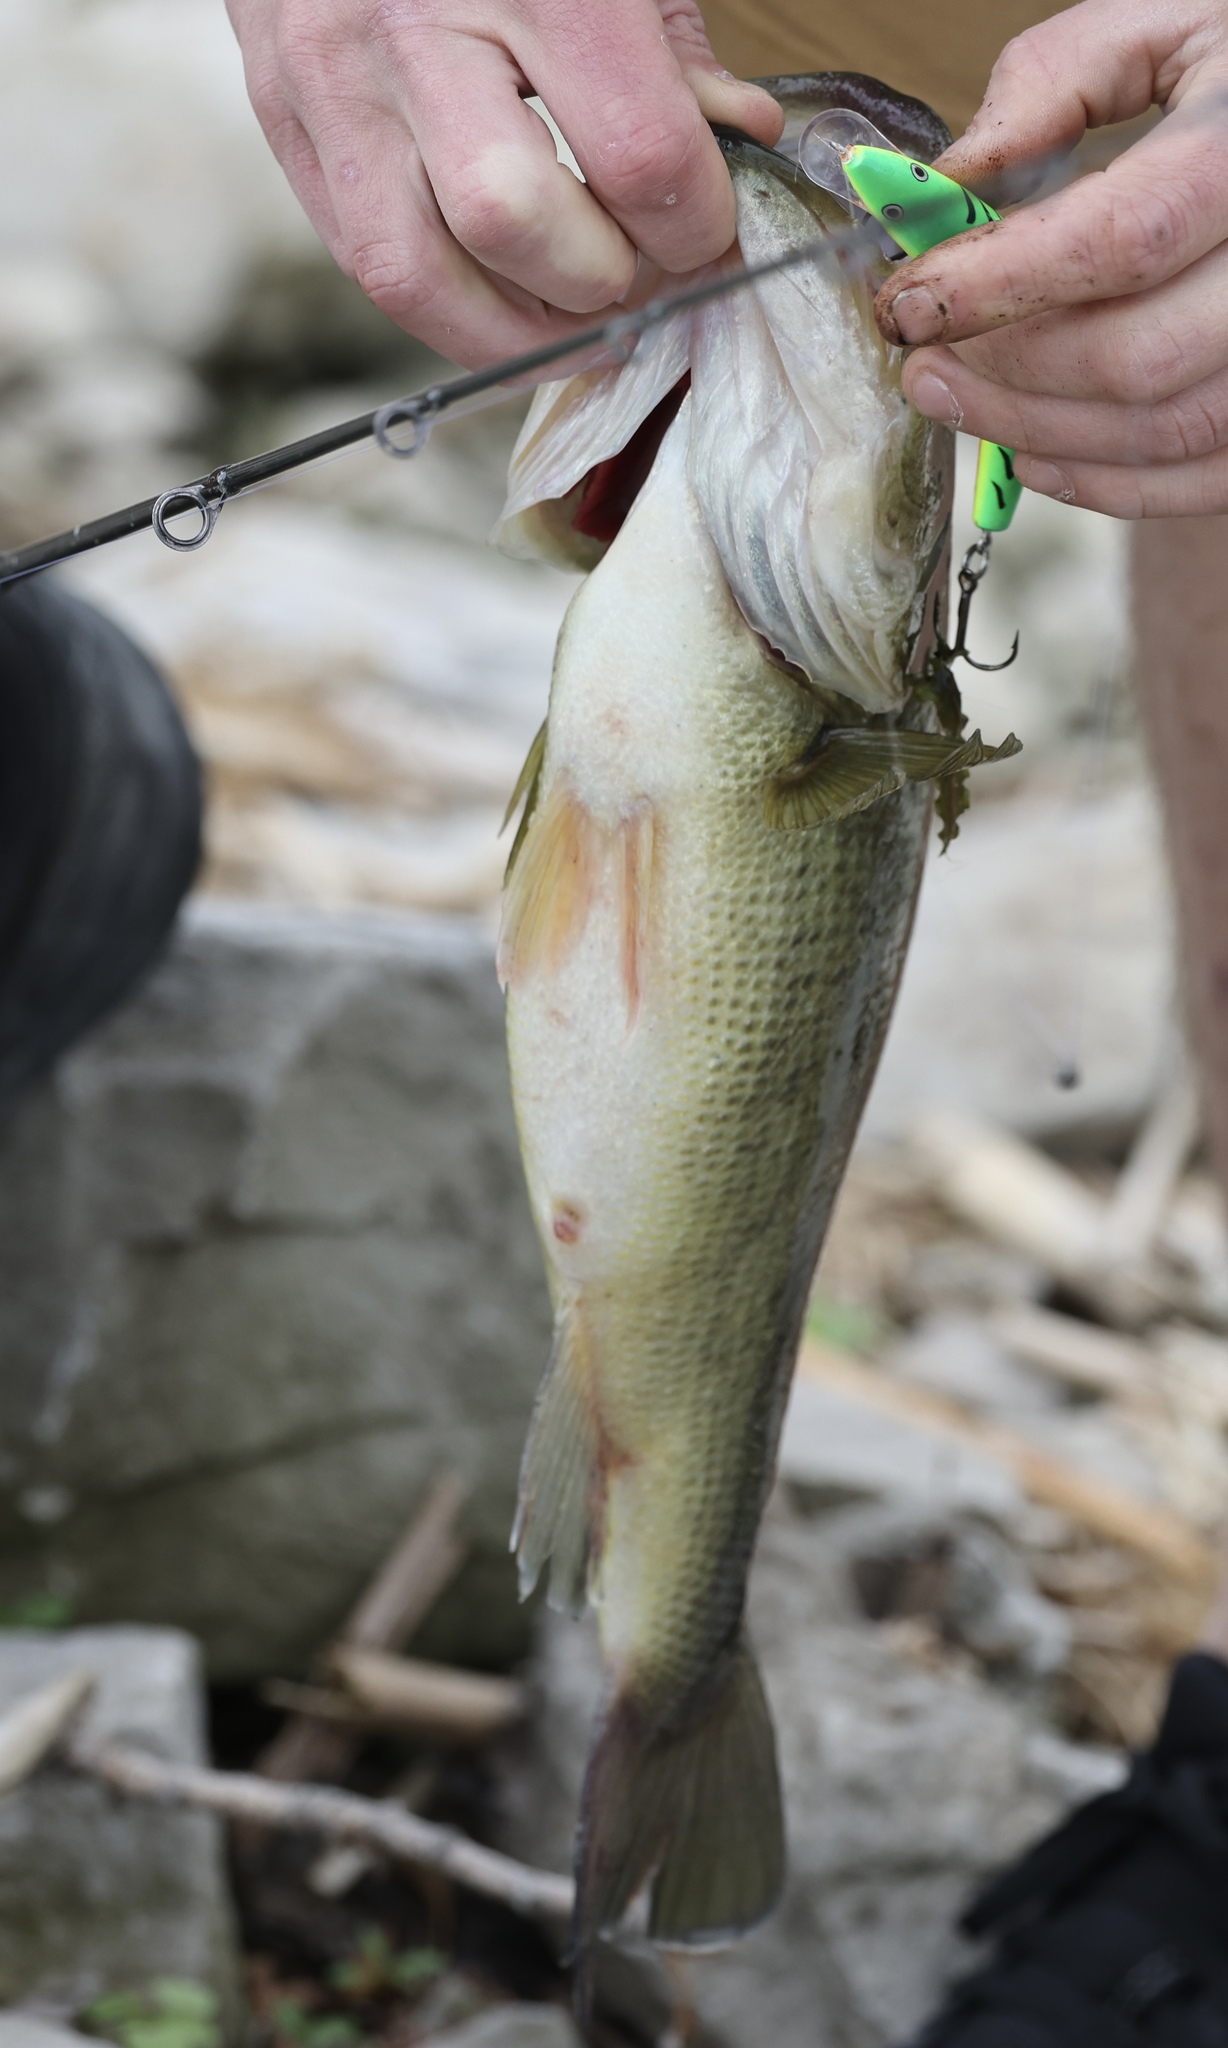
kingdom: Animalia
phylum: Chordata
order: Perciformes
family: Centrarchidae
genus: Micropterus
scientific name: Micropterus
